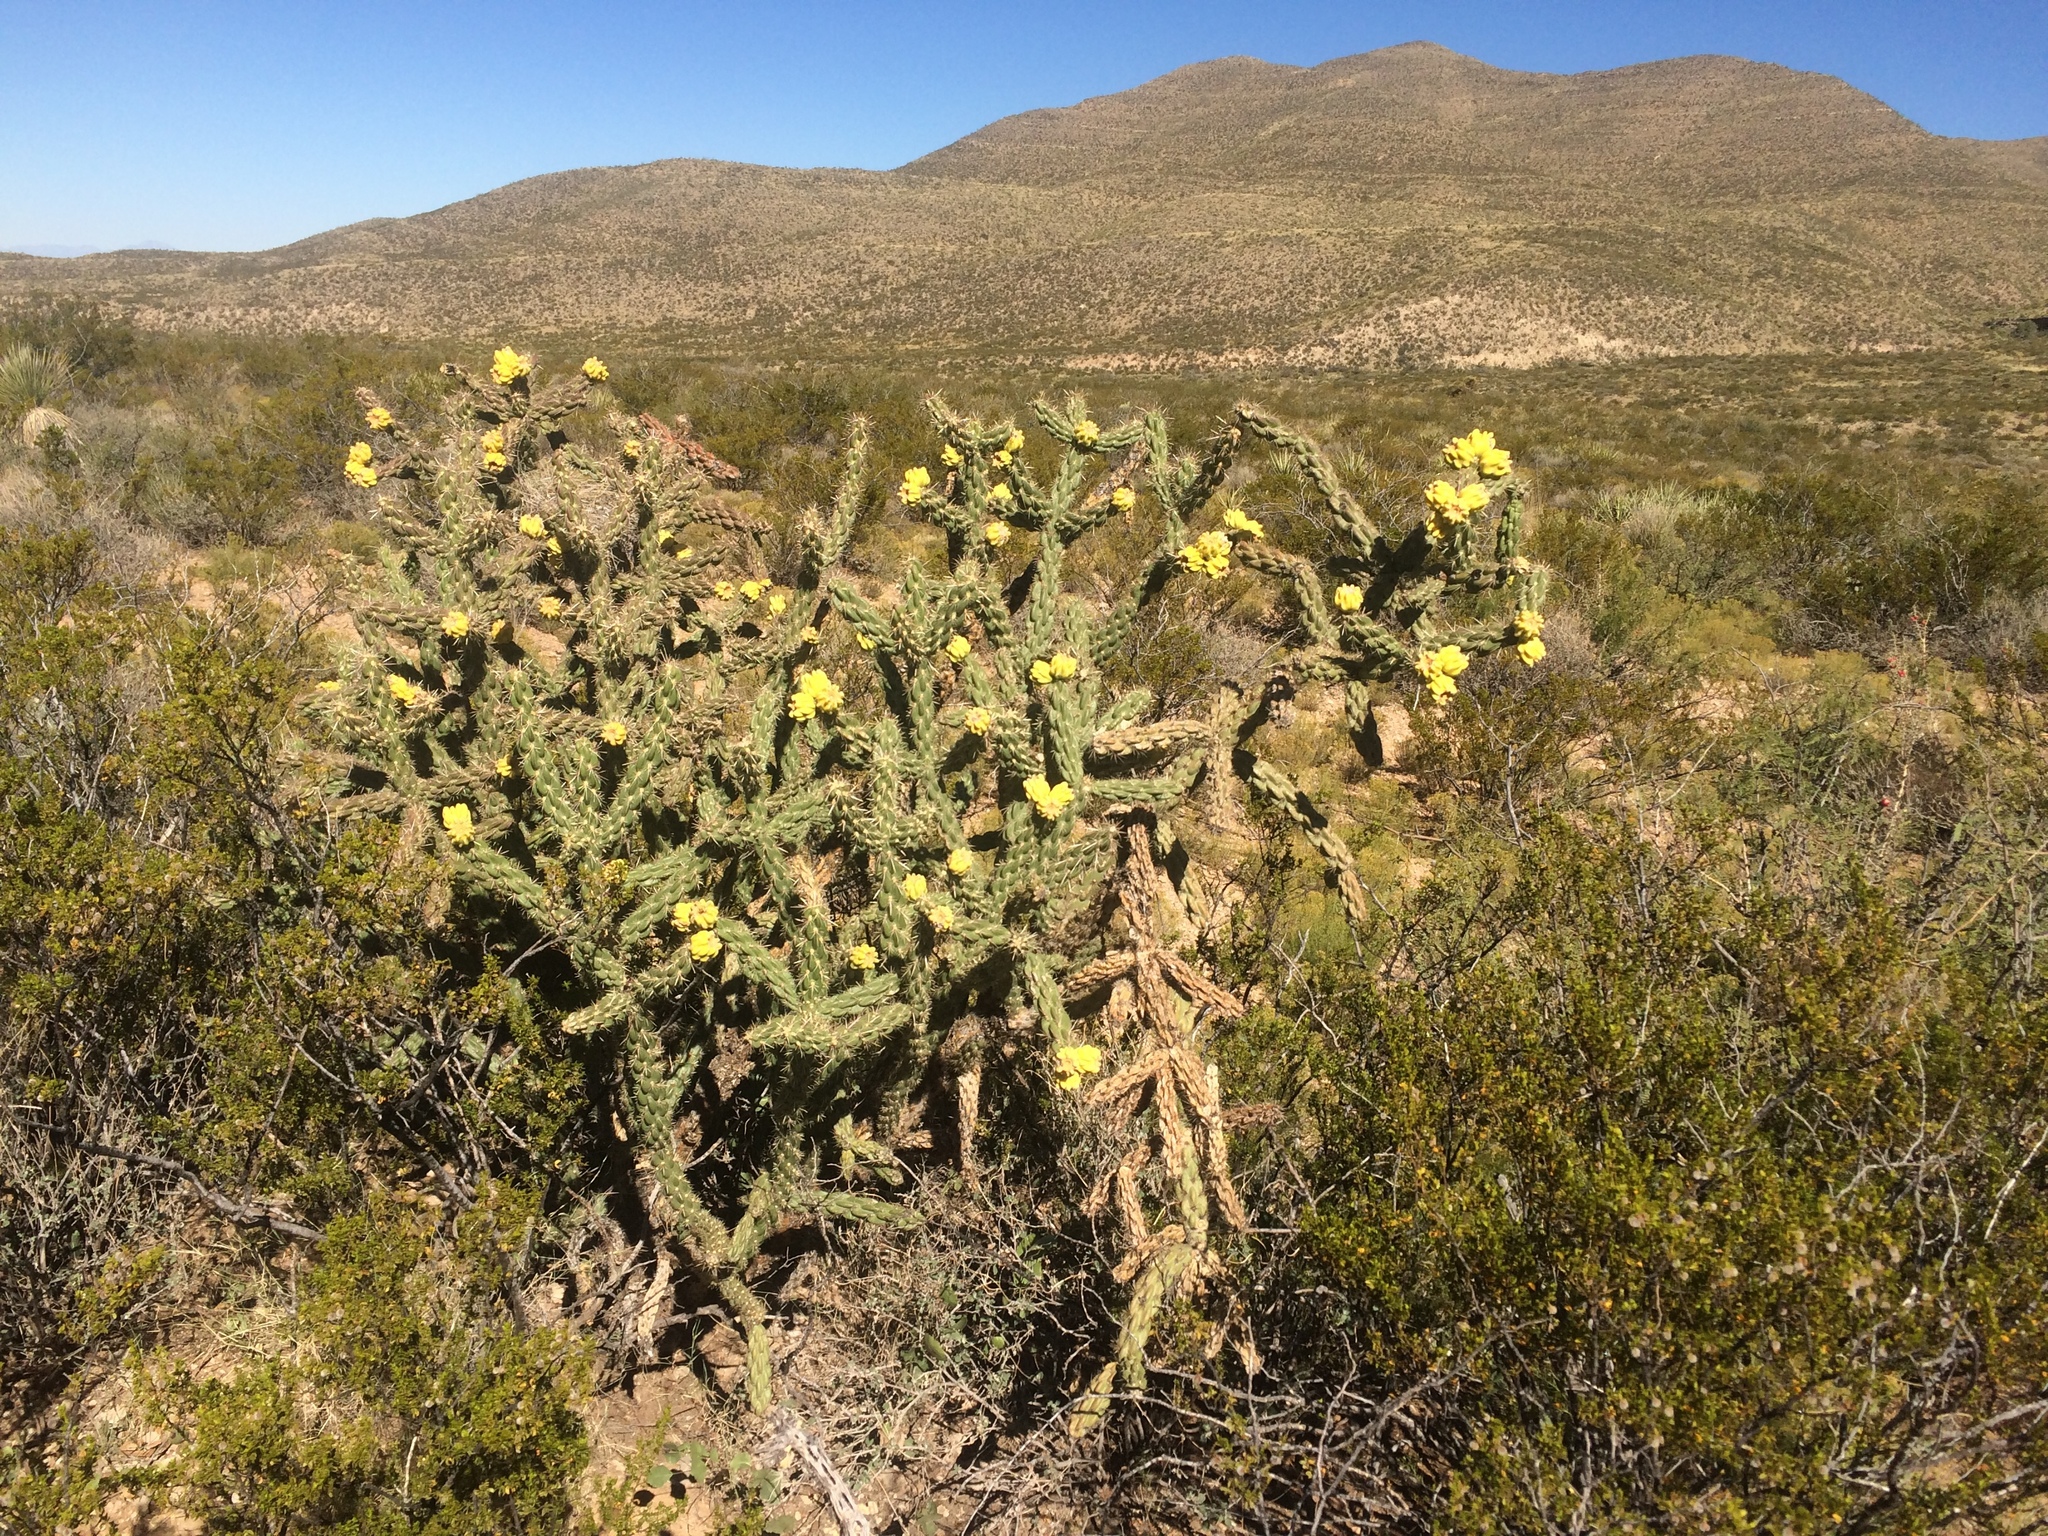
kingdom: Plantae
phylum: Tracheophyta
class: Magnoliopsida
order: Caryophyllales
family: Cactaceae
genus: Cylindropuntia
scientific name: Cylindropuntia imbricata
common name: Candelabrum cactus
